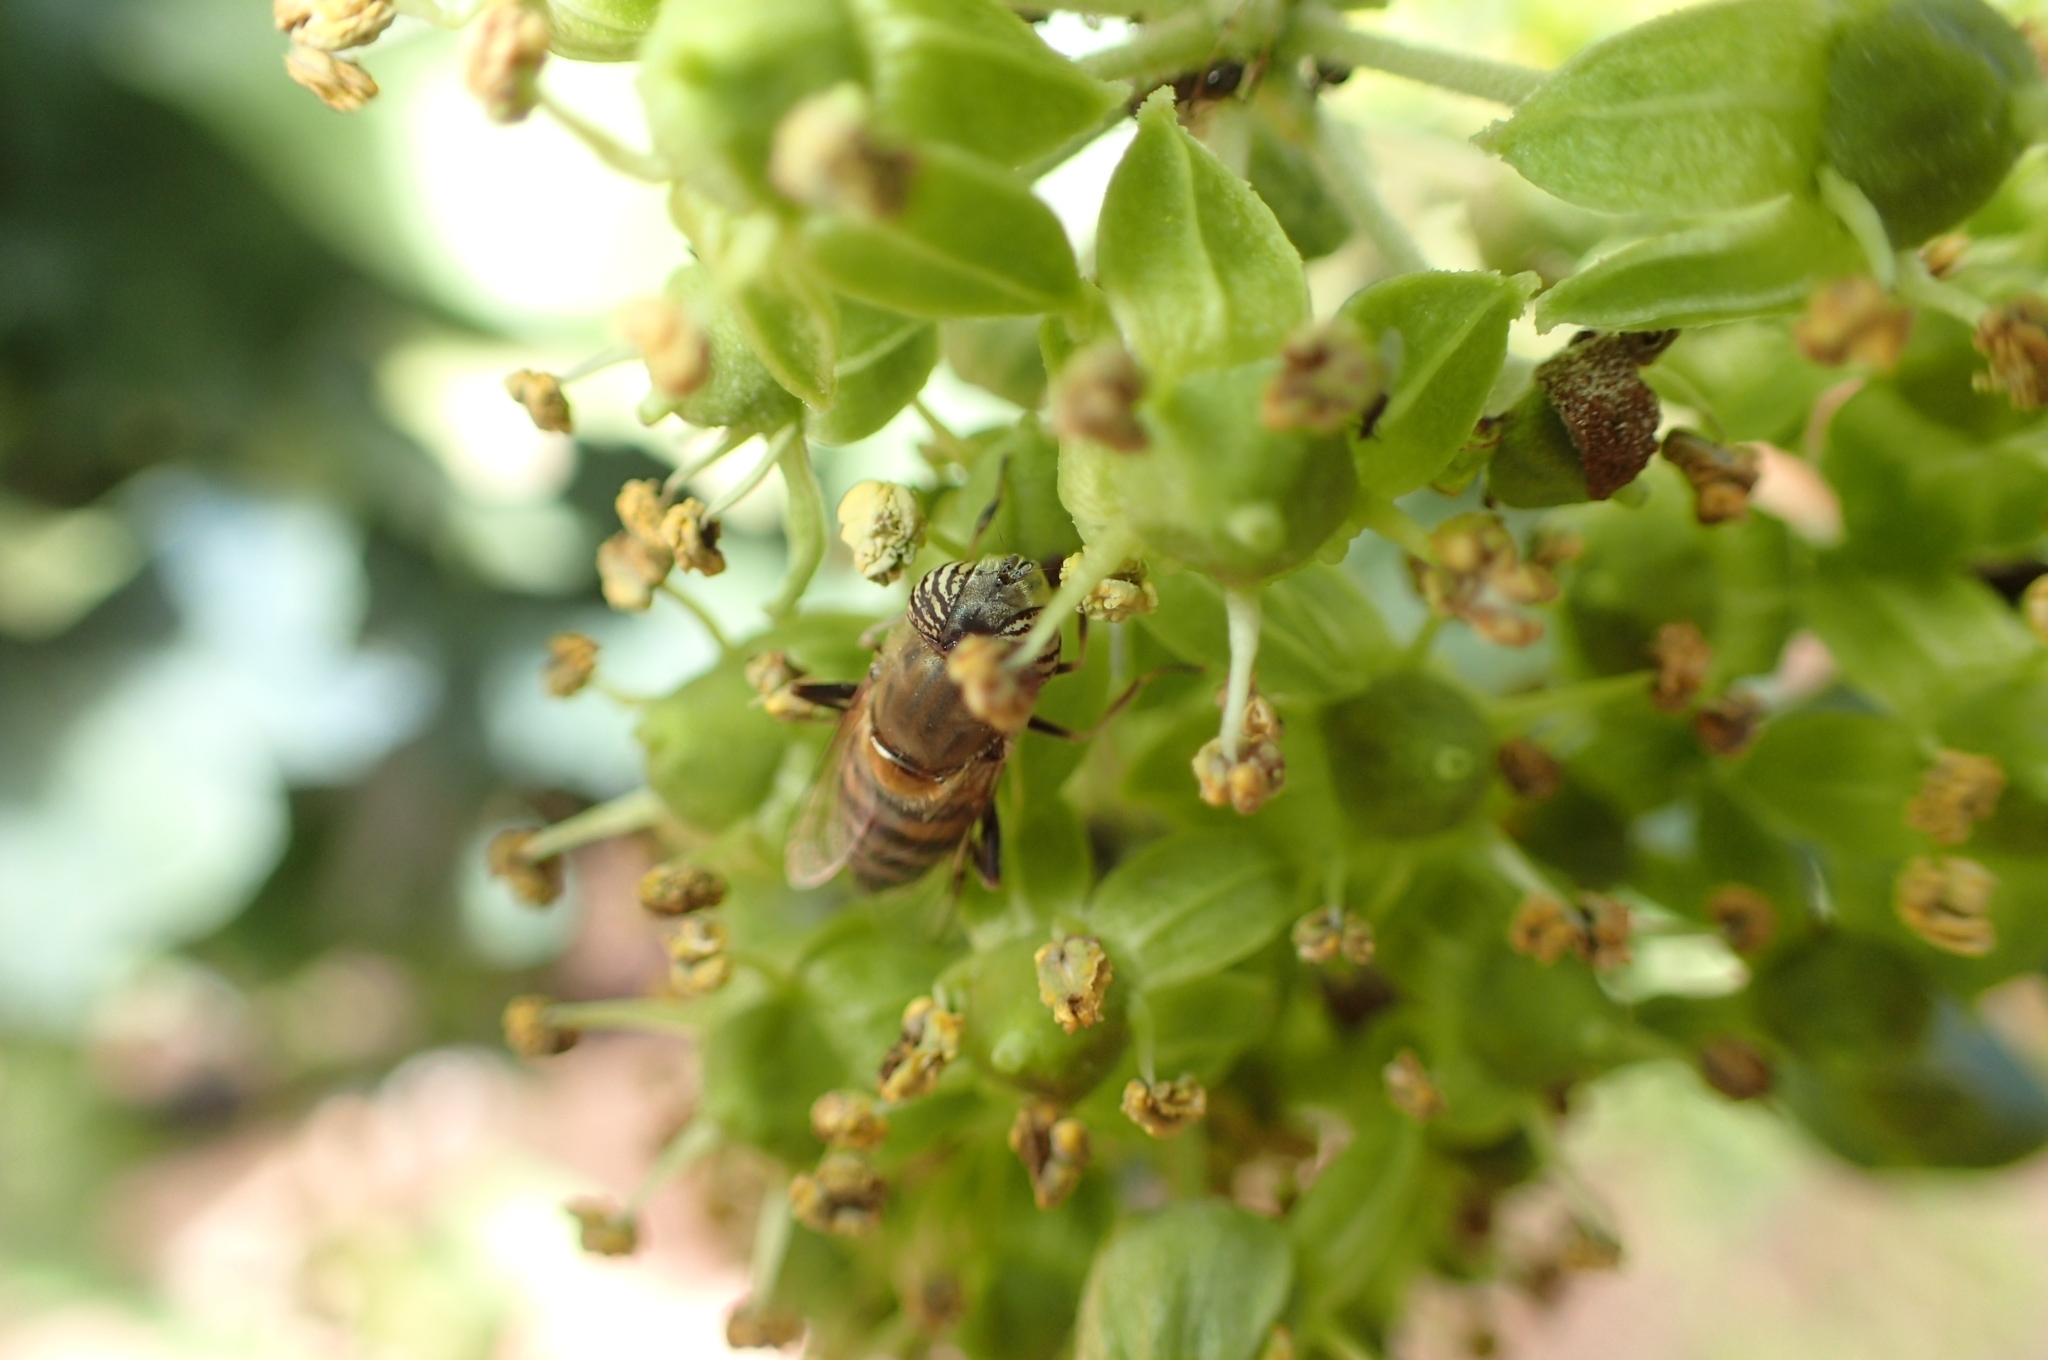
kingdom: Animalia
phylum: Arthropoda
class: Insecta
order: Diptera
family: Syrphidae
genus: Eristalinus
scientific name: Eristalinus taeniops
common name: Syrphid fly
